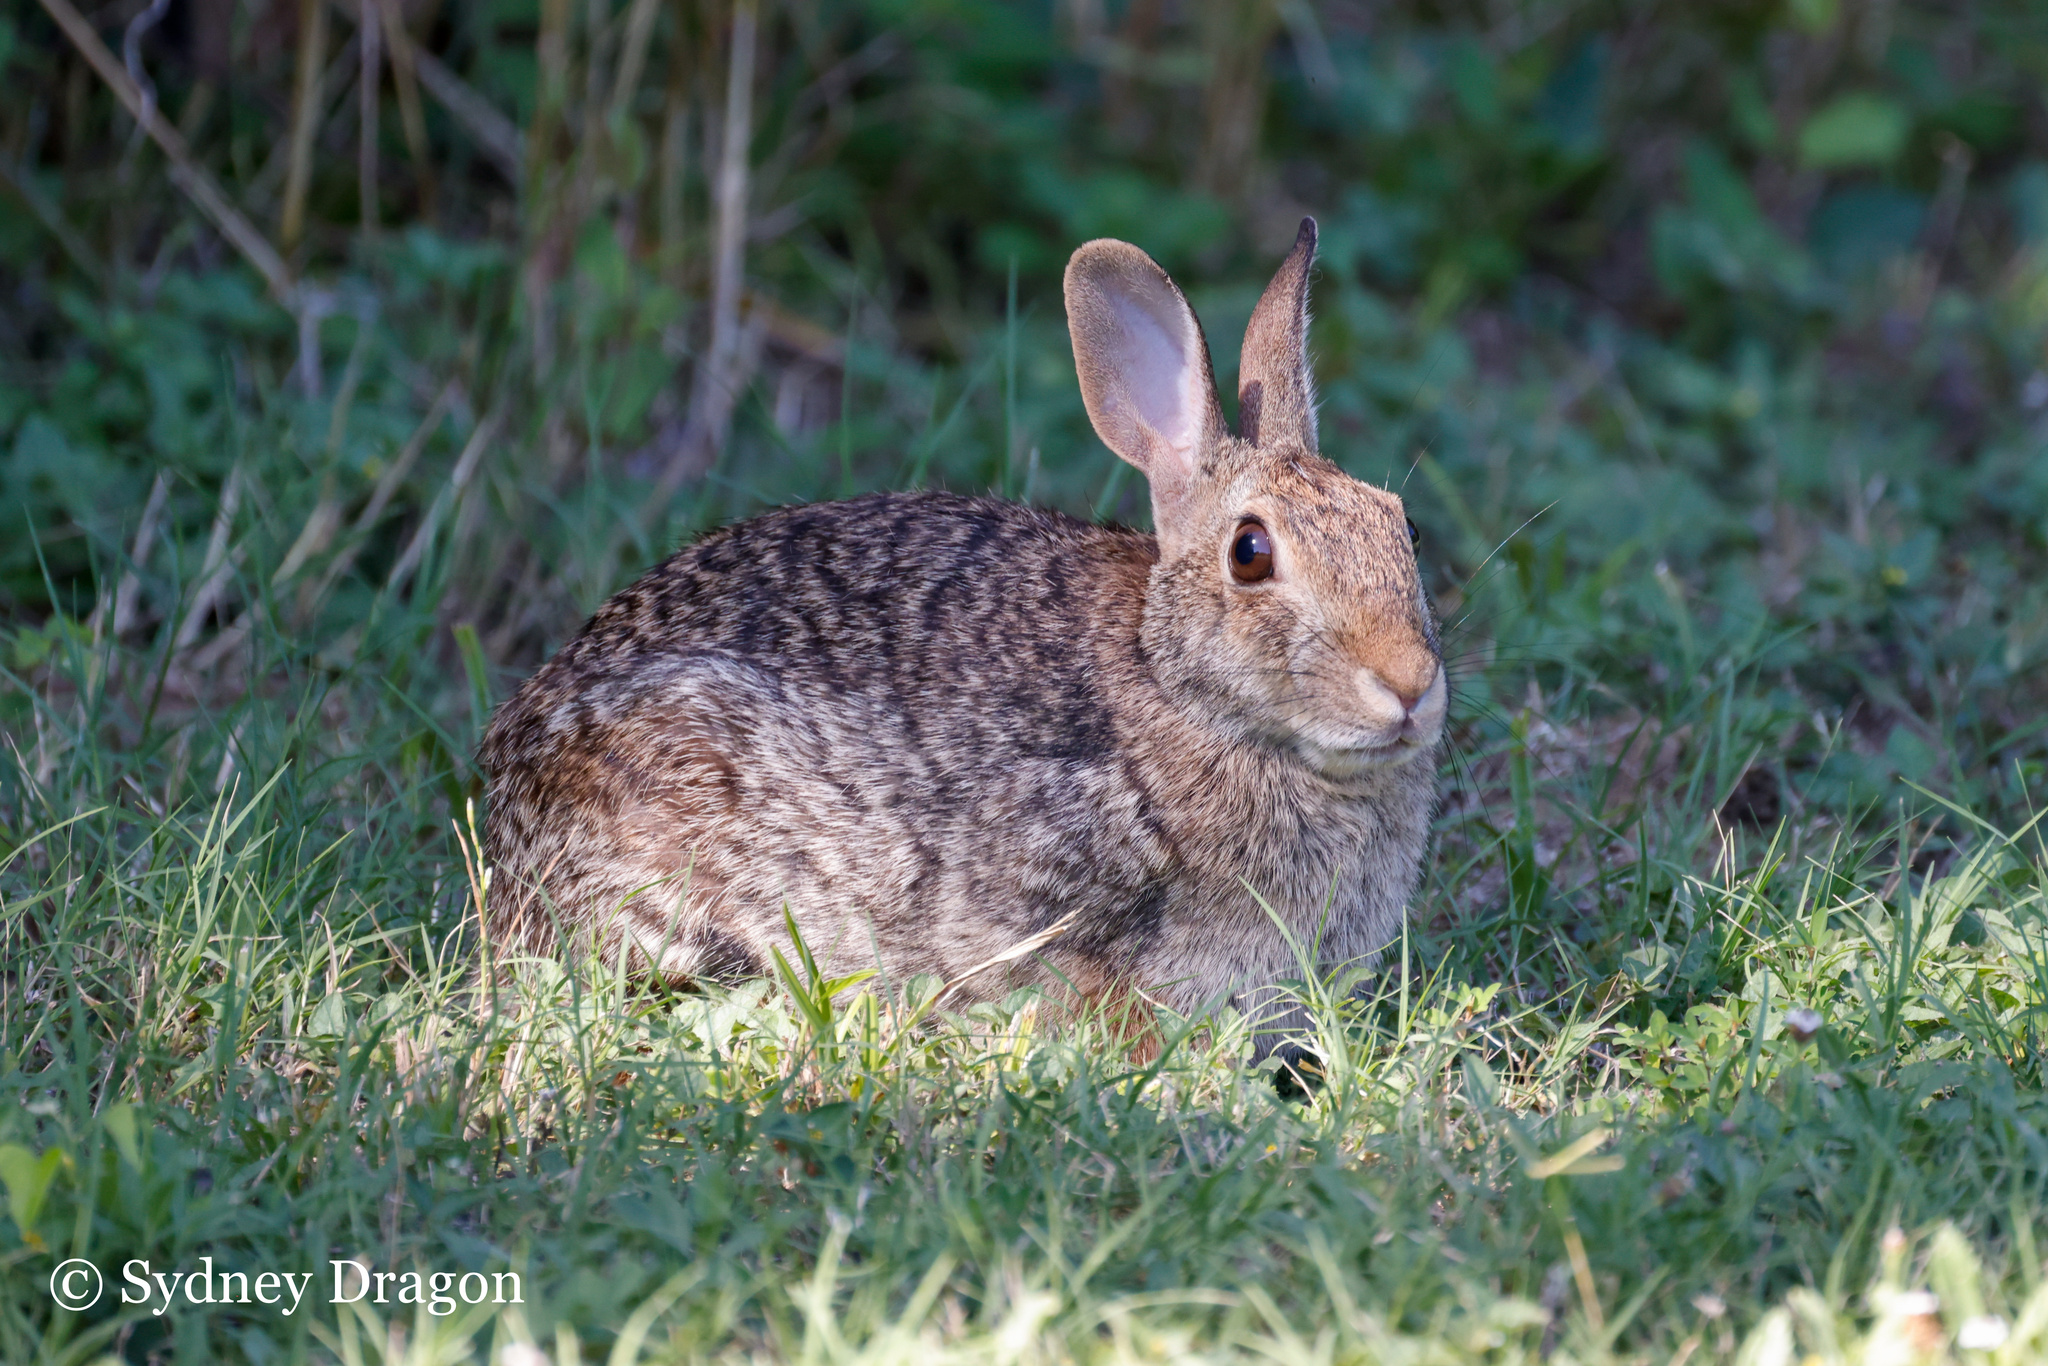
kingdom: Animalia
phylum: Chordata
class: Mammalia
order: Lagomorpha
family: Leporidae
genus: Sylvilagus
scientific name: Sylvilagus floridanus
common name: Eastern cottontail
